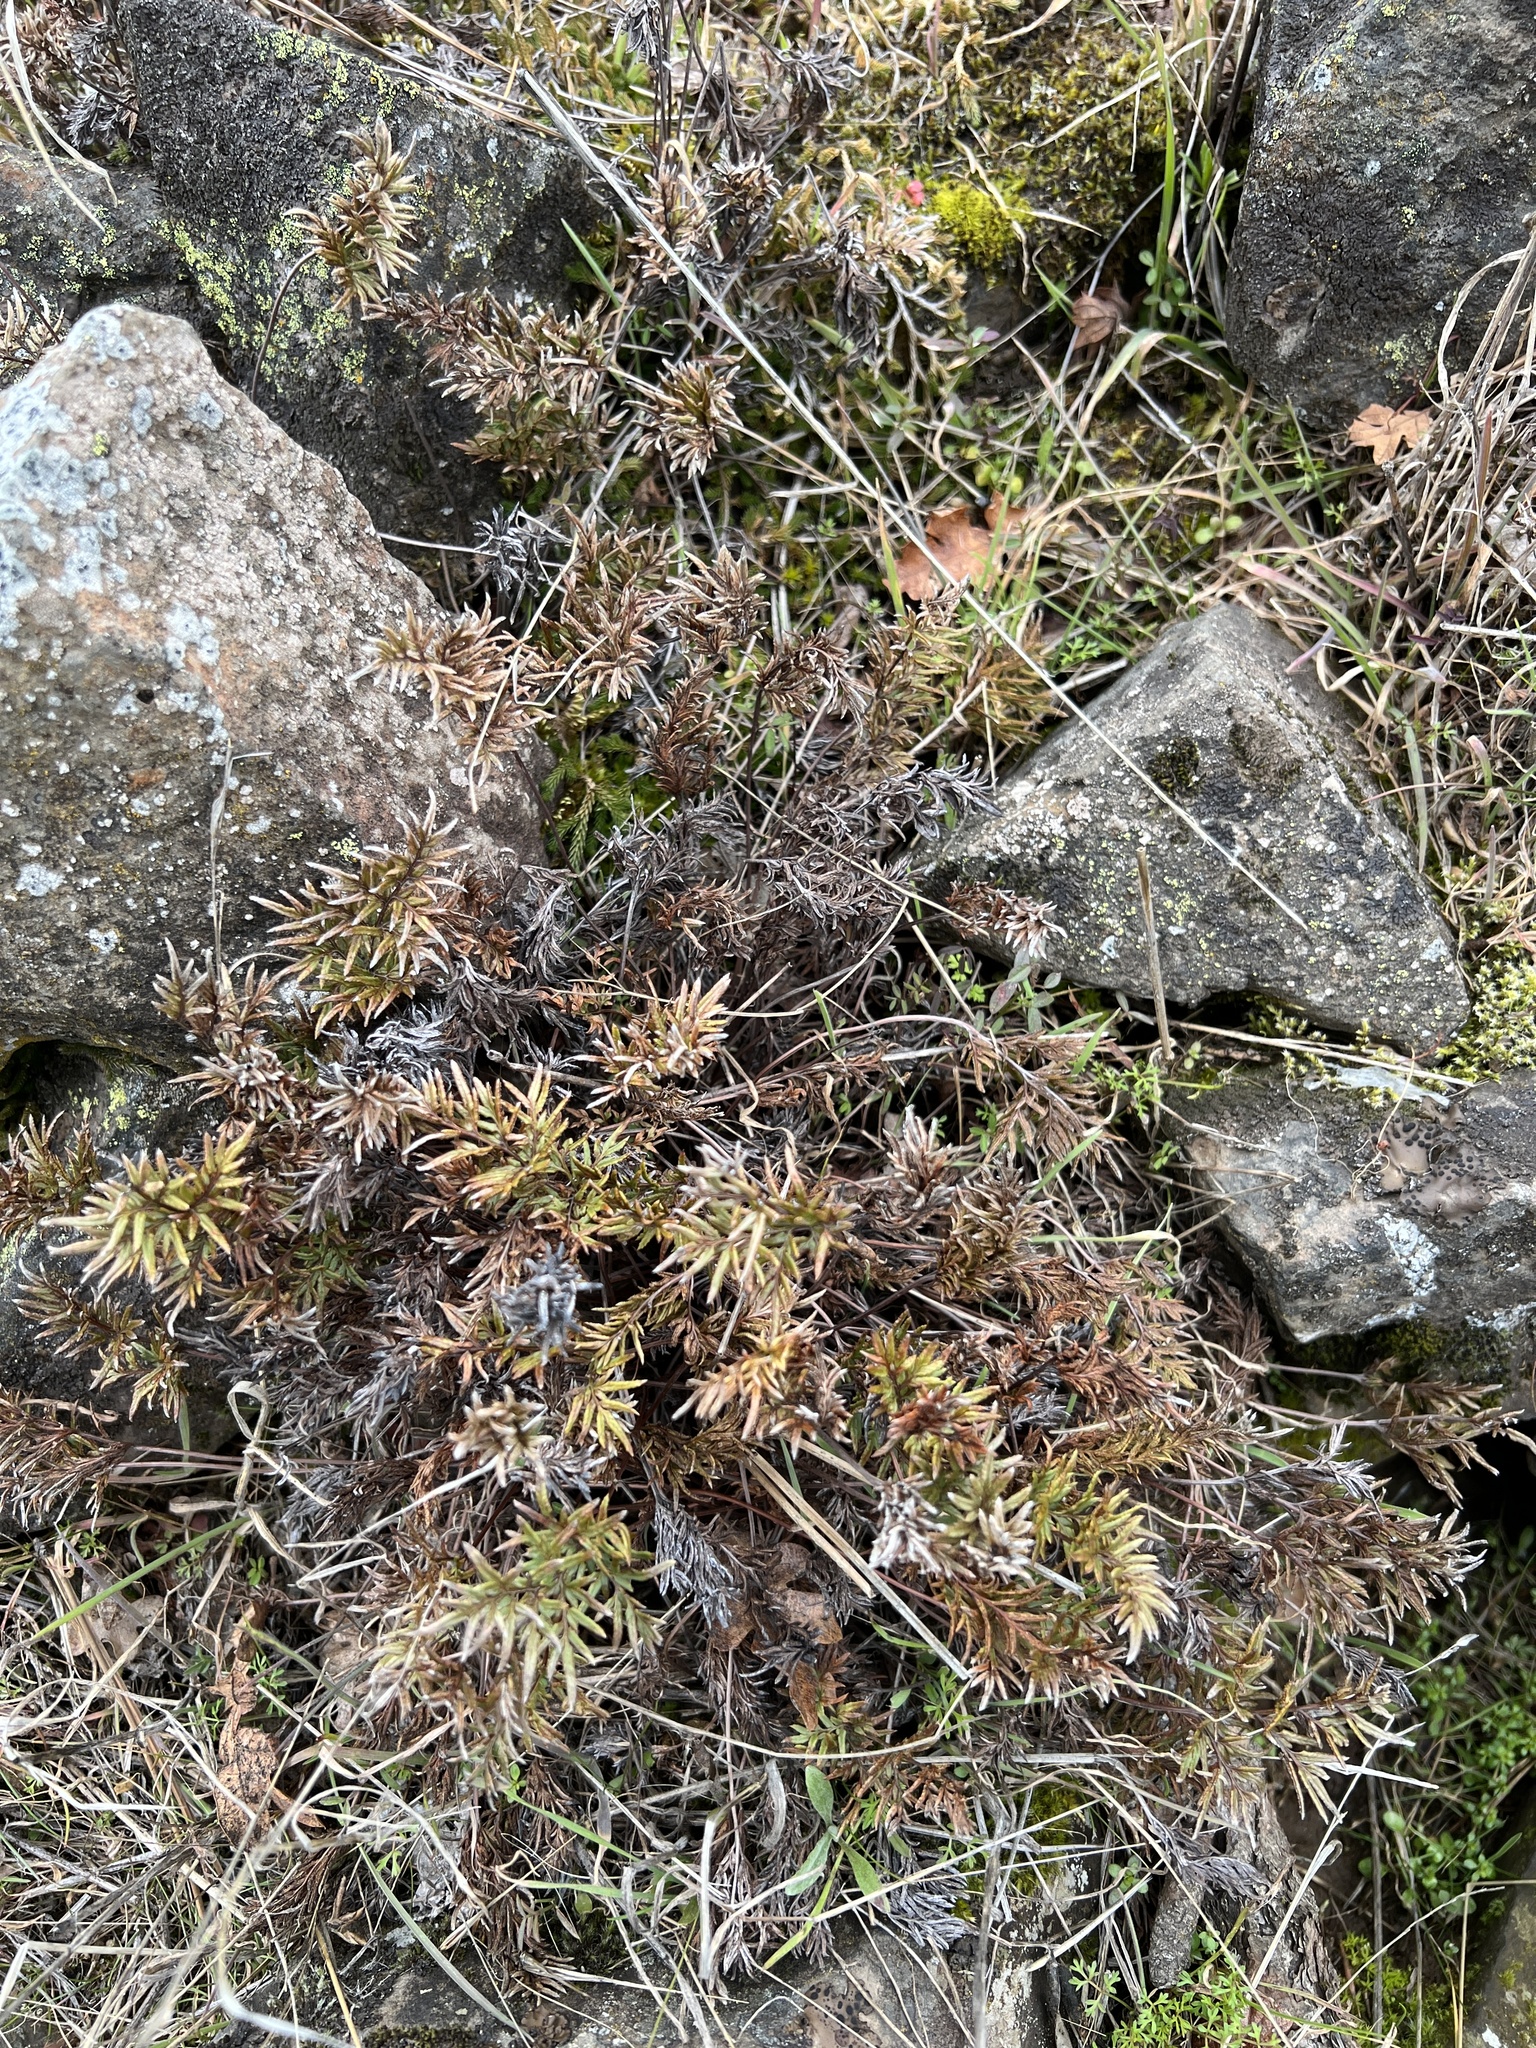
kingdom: Plantae
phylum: Tracheophyta
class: Polypodiopsida
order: Polypodiales
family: Pteridaceae
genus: Aspidotis
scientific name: Aspidotis densa
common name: Indian's dream
